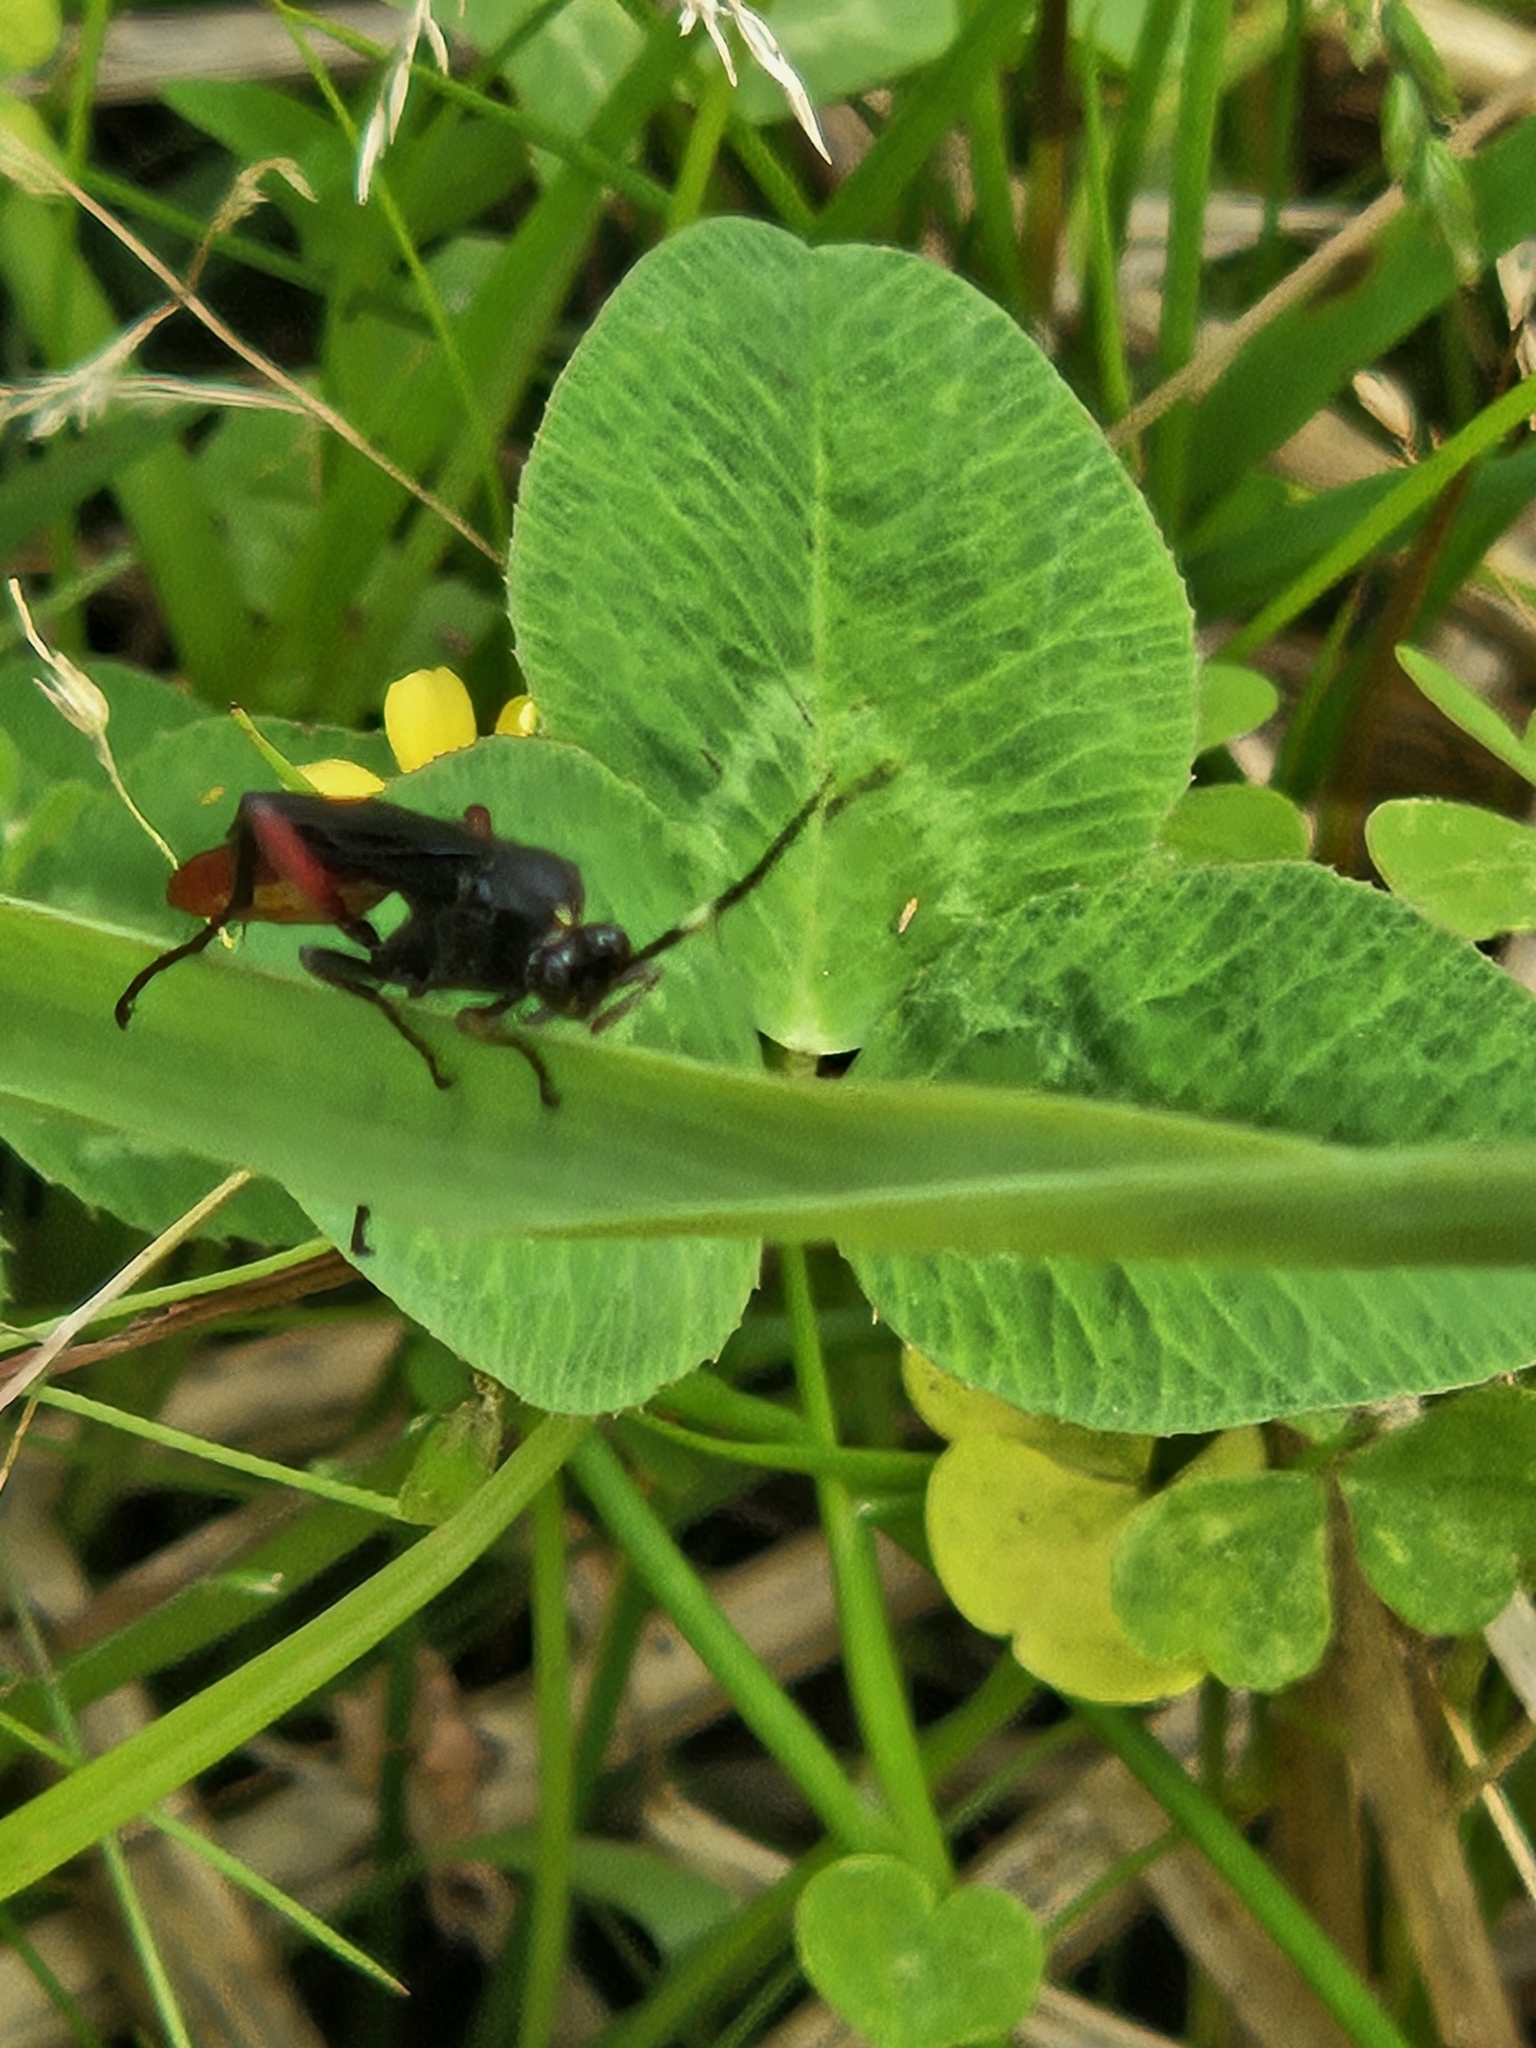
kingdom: Animalia
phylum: Arthropoda
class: Insecta
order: Hymenoptera
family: Ichneumonidae
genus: Limonethe
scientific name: Limonethe maurator
